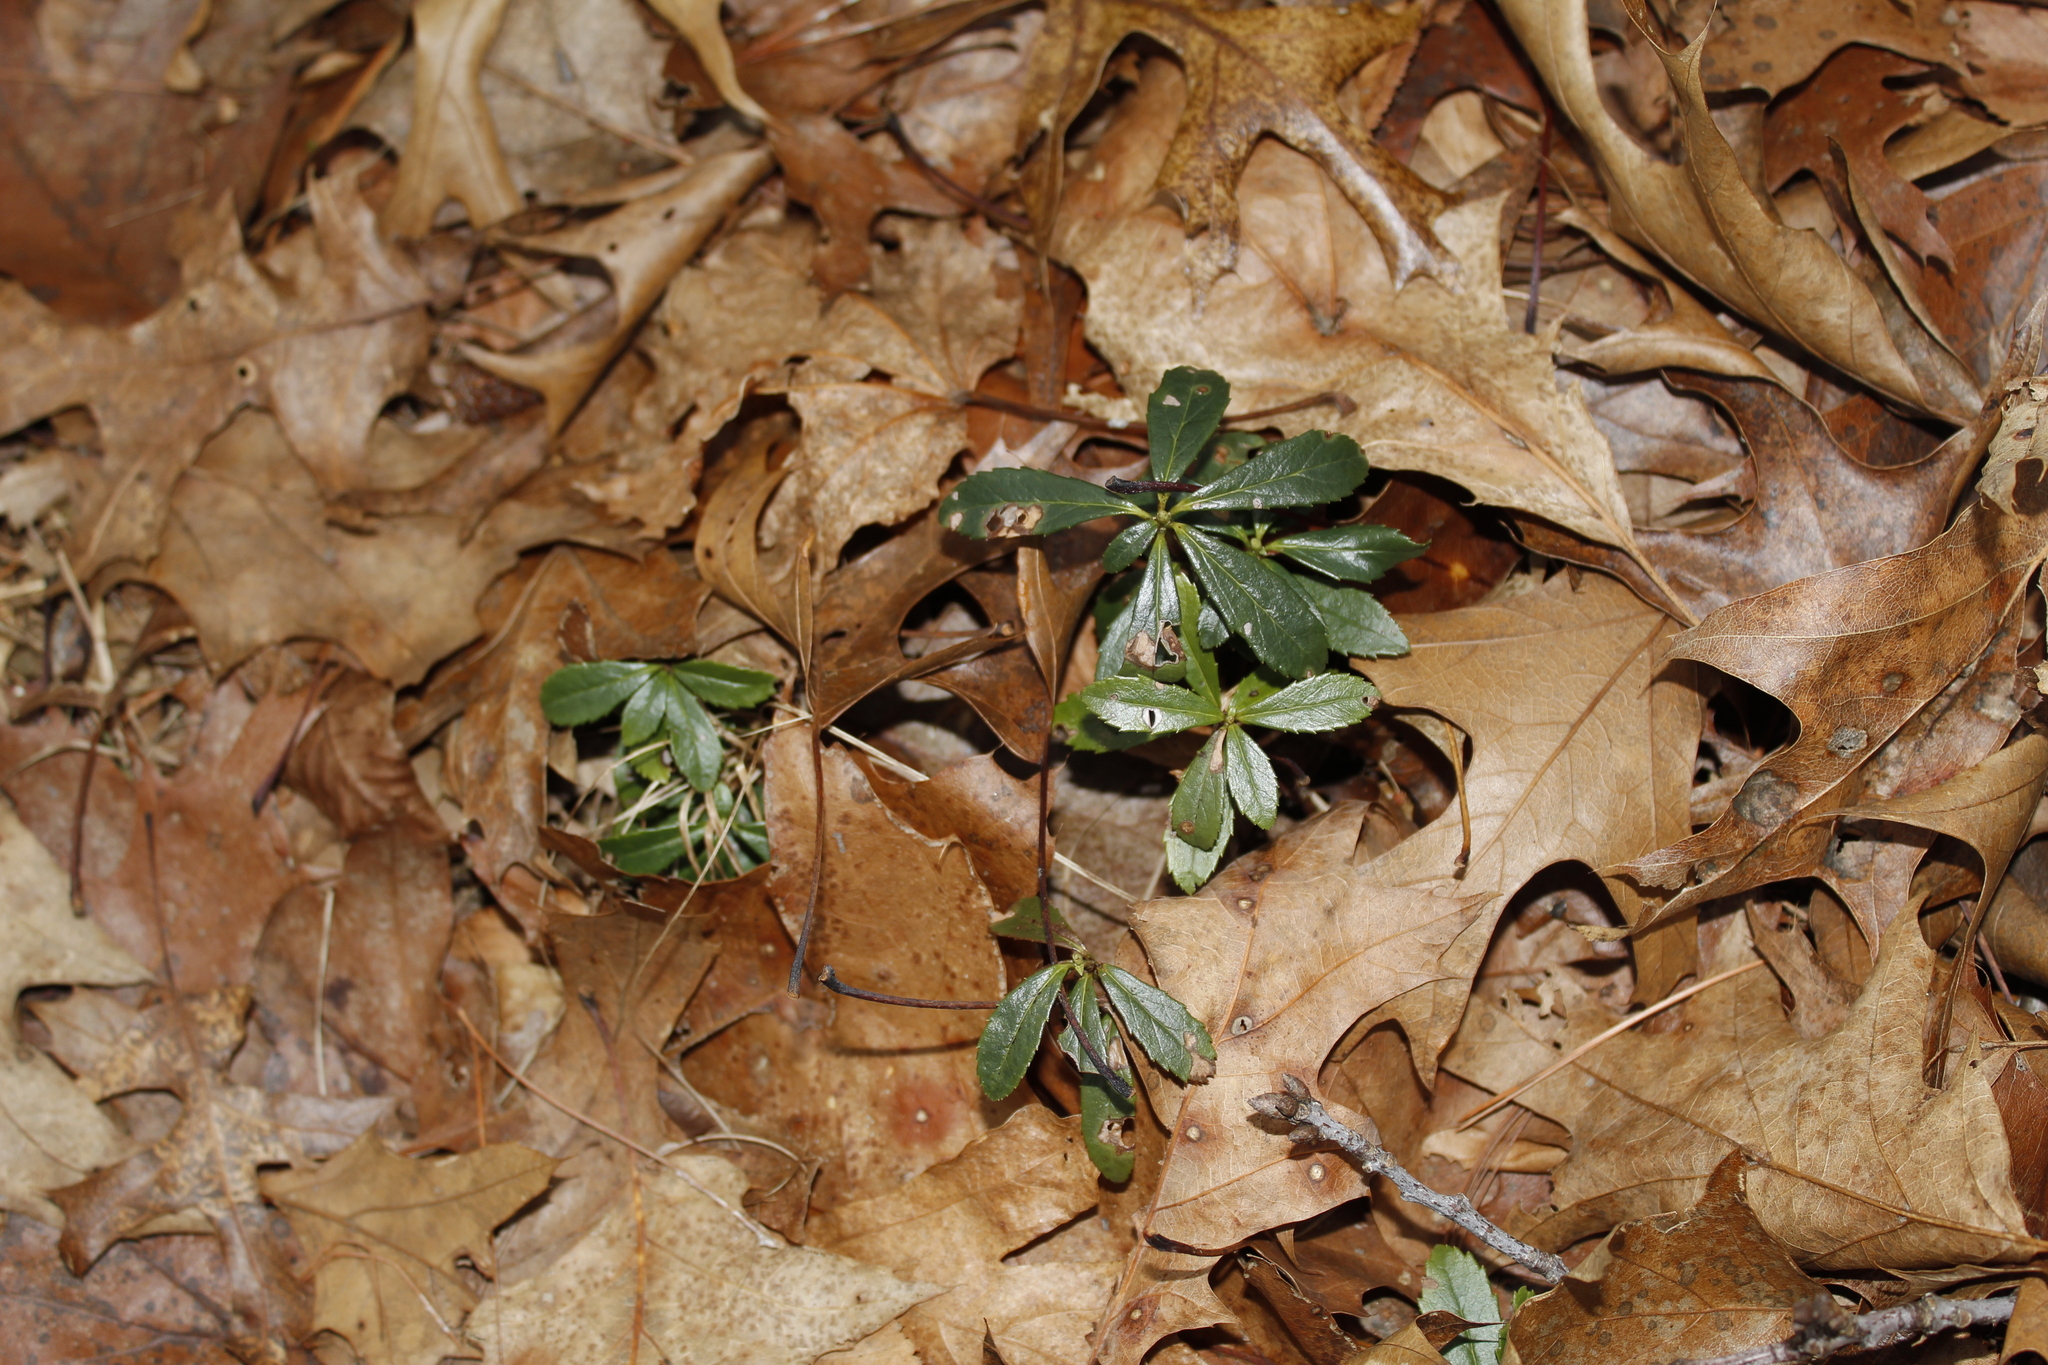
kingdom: Plantae
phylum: Tracheophyta
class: Magnoliopsida
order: Ericales
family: Ericaceae
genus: Chimaphila
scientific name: Chimaphila umbellata
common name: Pipsissewa
